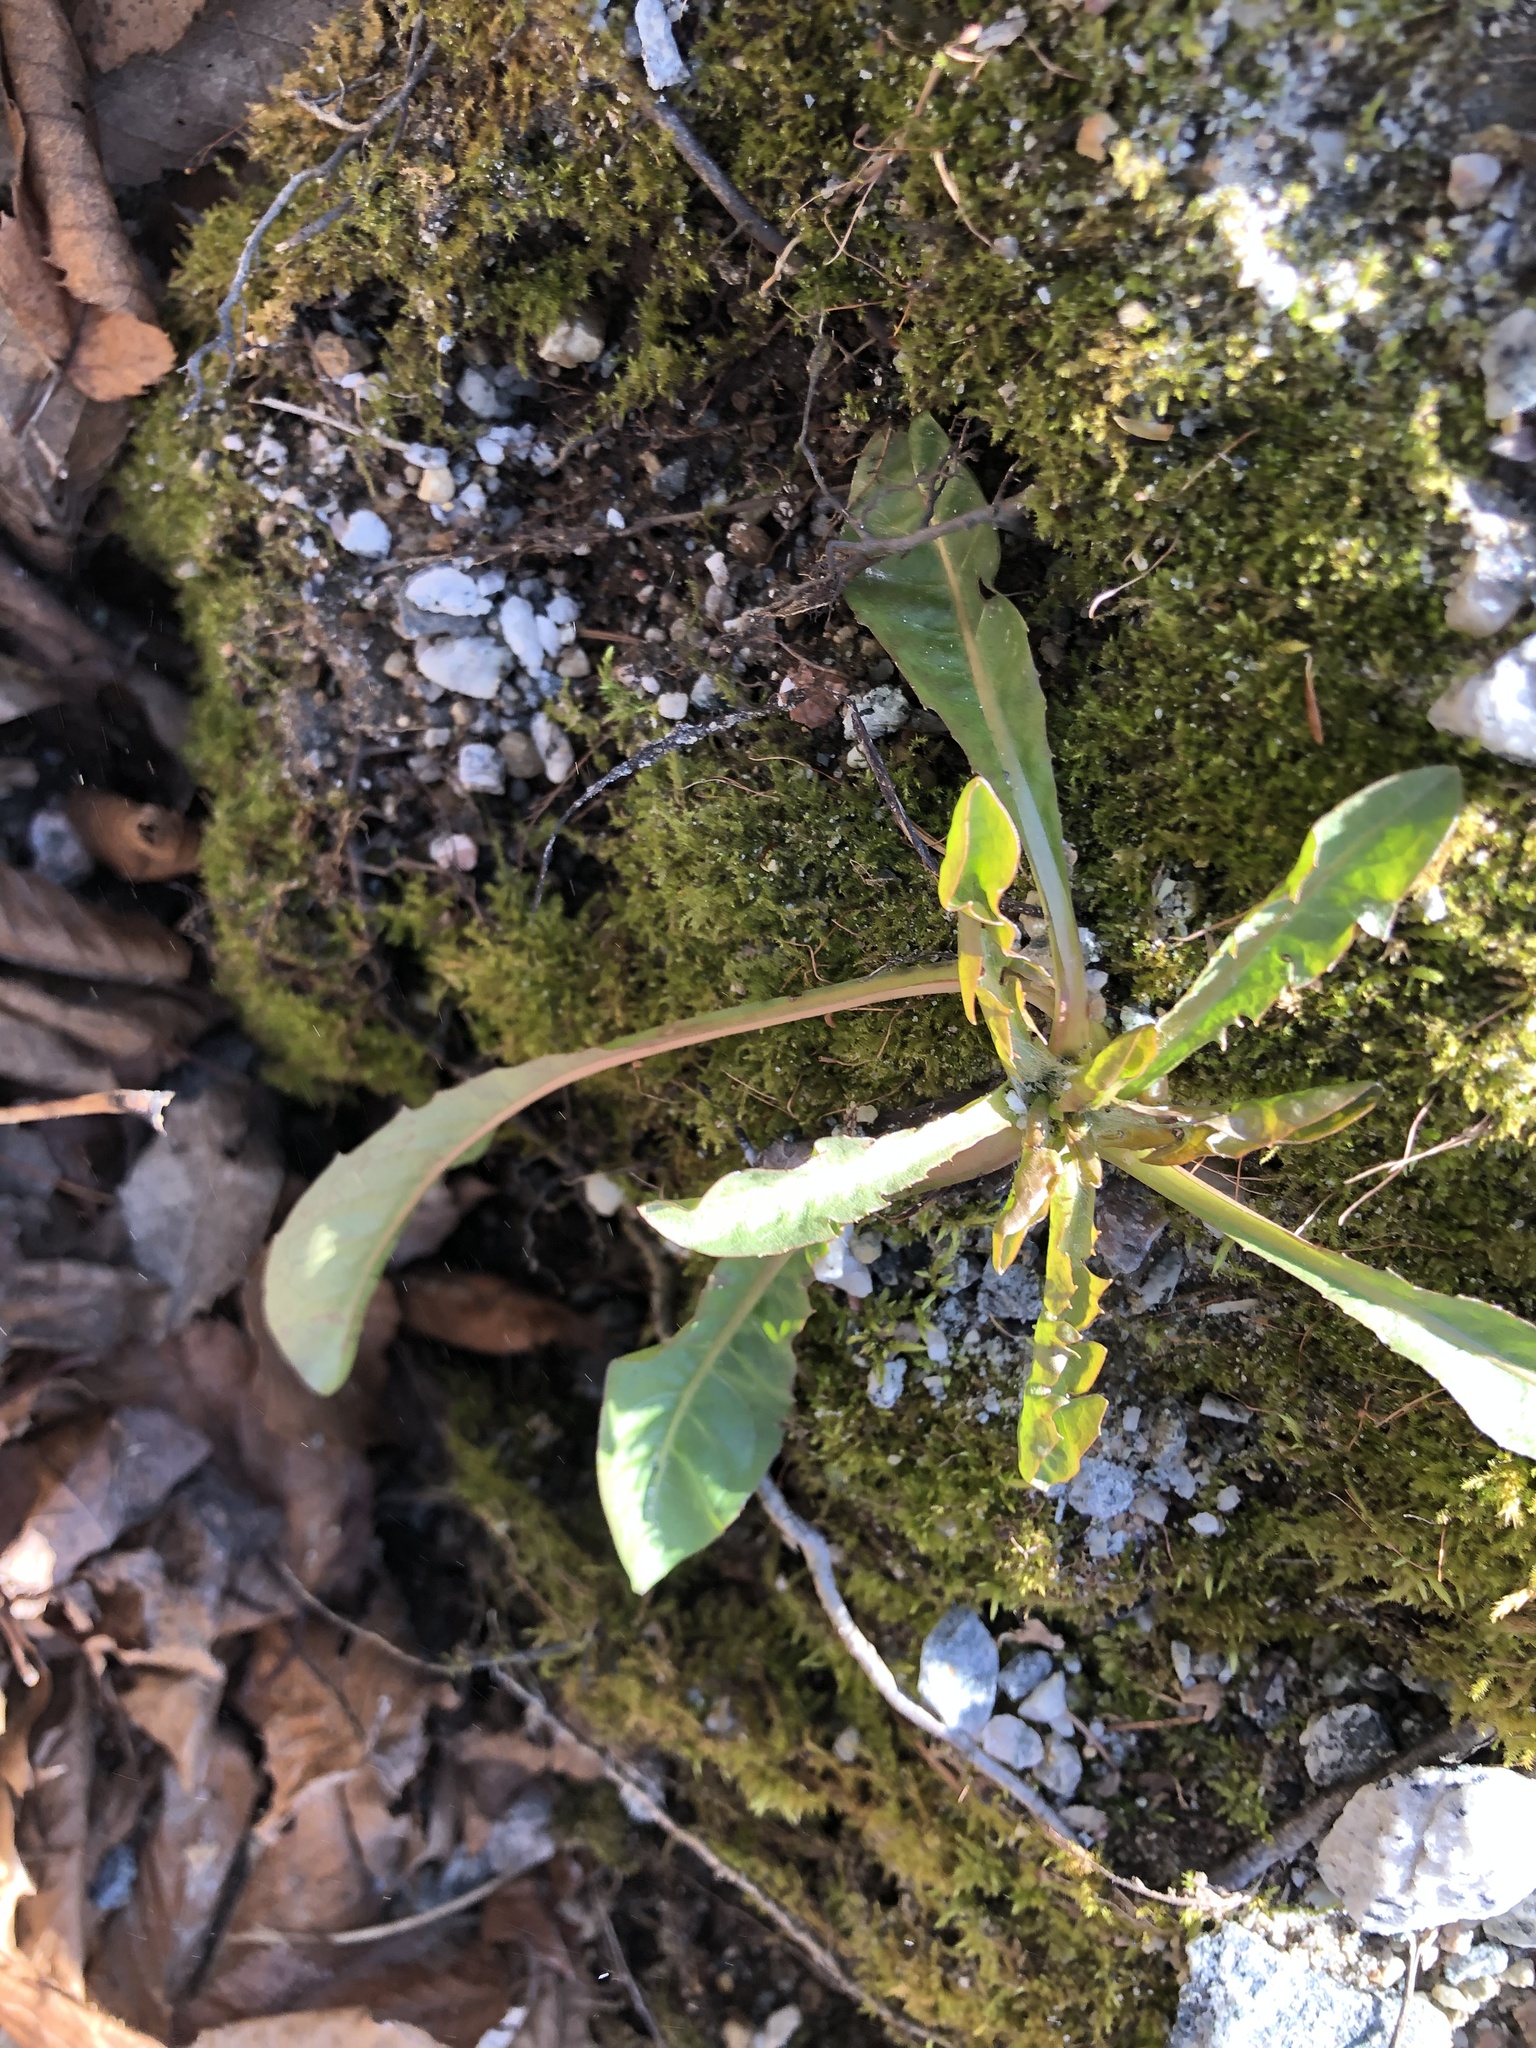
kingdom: Plantae
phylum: Tracheophyta
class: Magnoliopsida
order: Asterales
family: Asteraceae
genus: Taraxacum
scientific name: Taraxacum officinale
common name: Common dandelion
